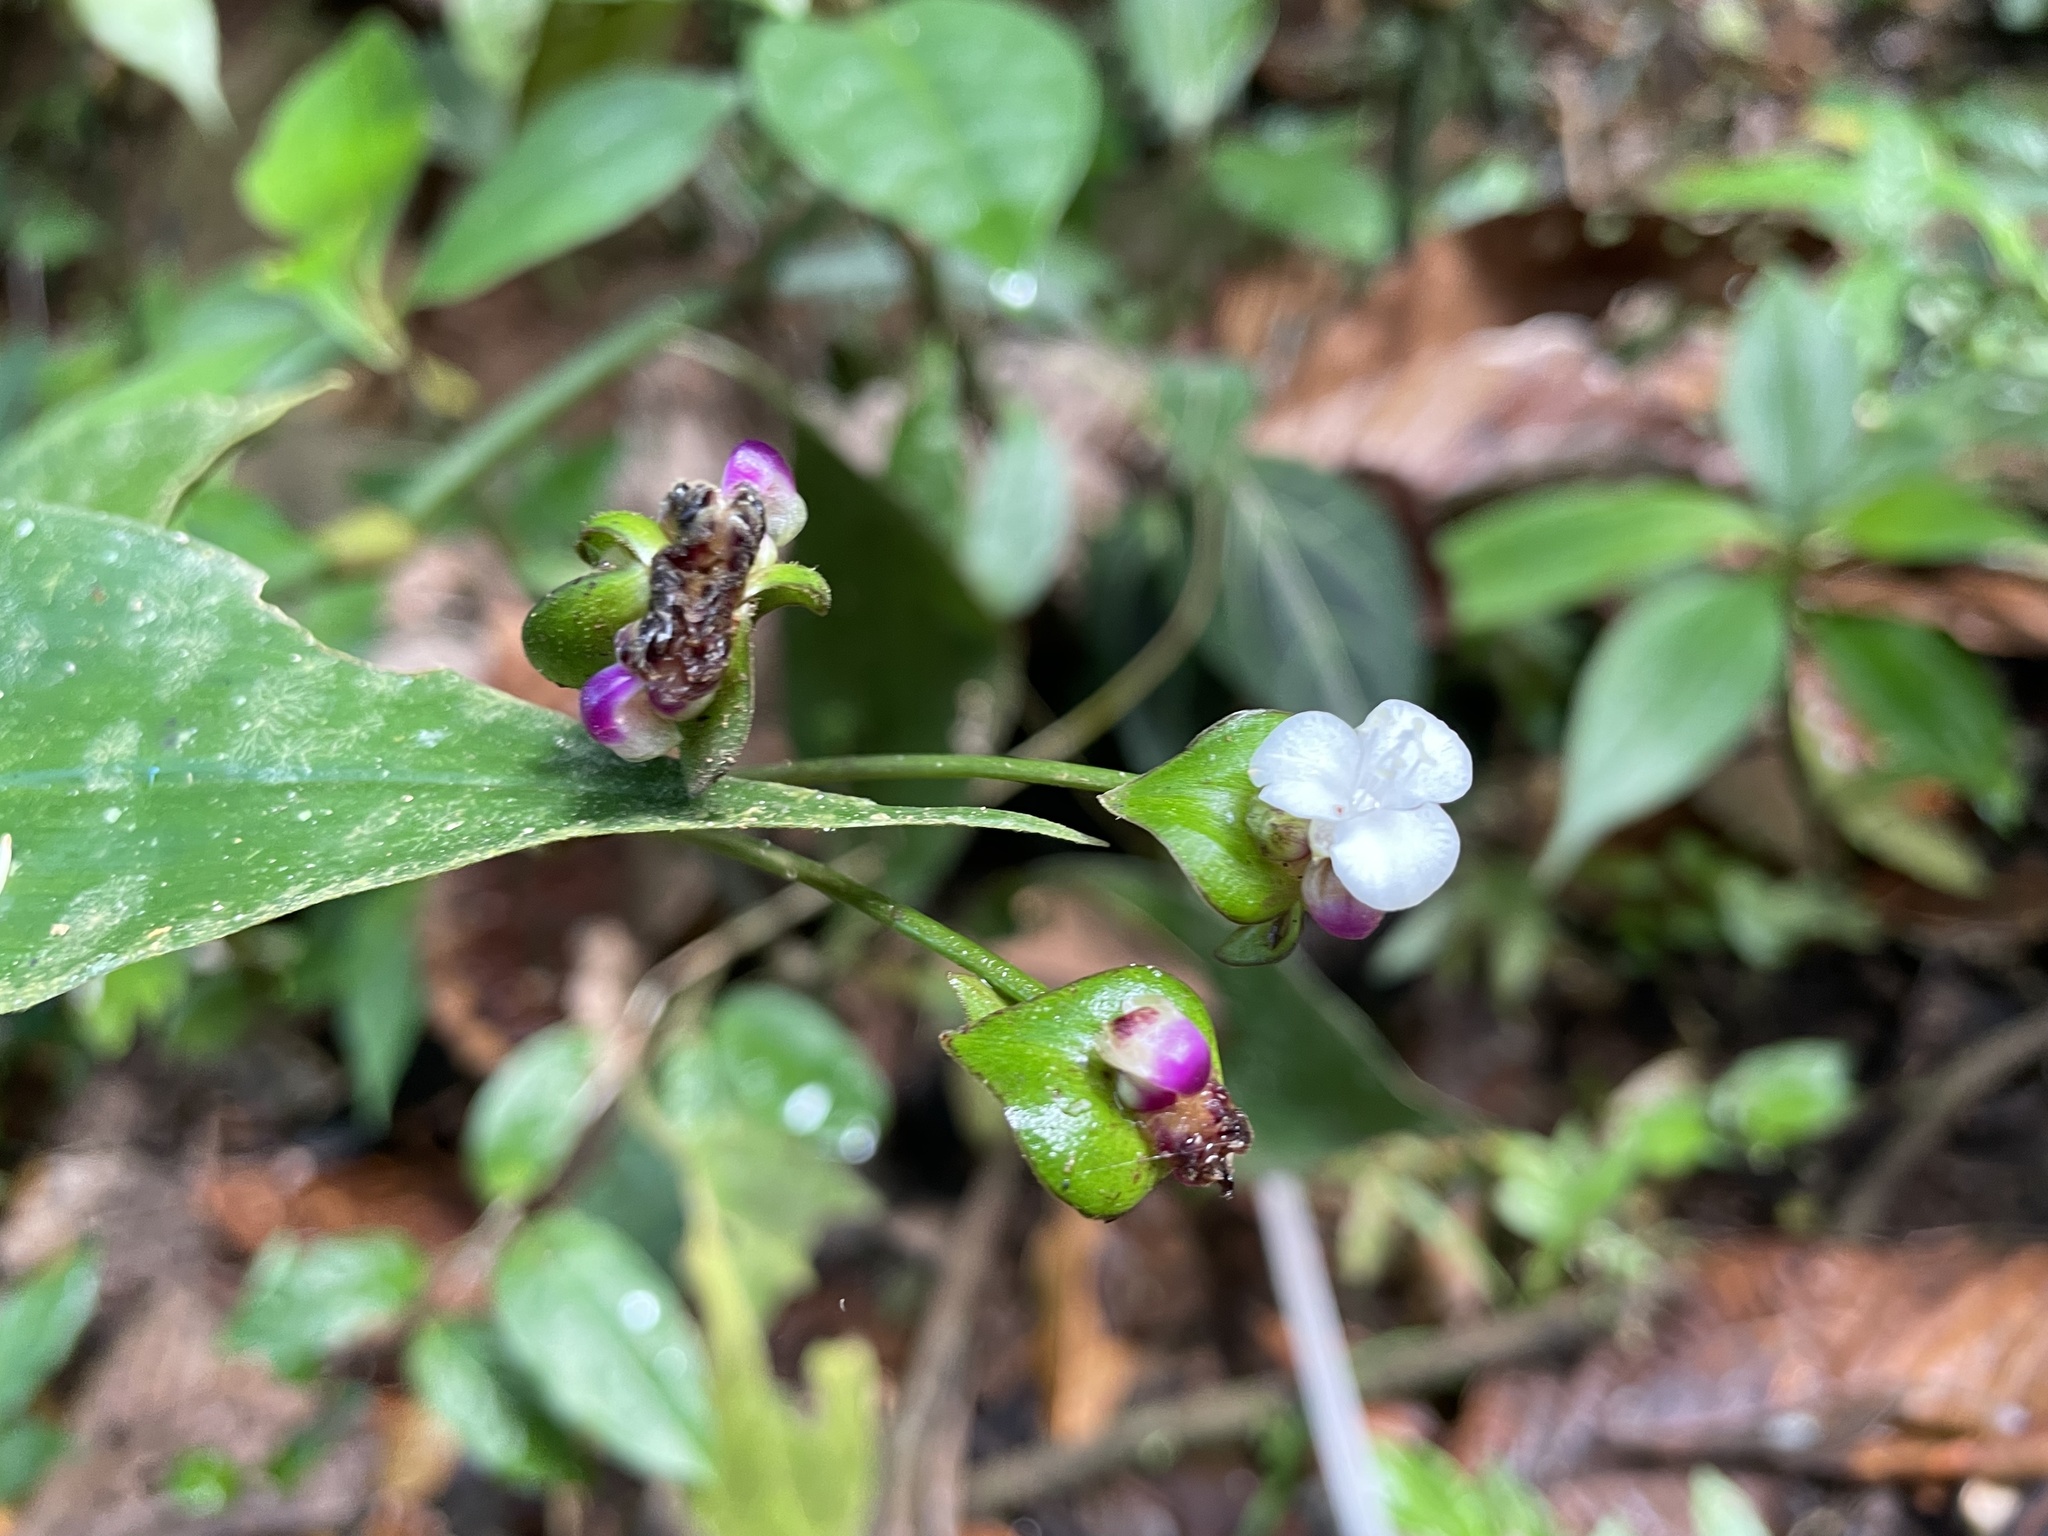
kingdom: Plantae
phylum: Tracheophyta
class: Liliopsida
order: Commelinales
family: Commelinaceae
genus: Tradescantia
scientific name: Tradescantia zanonia
